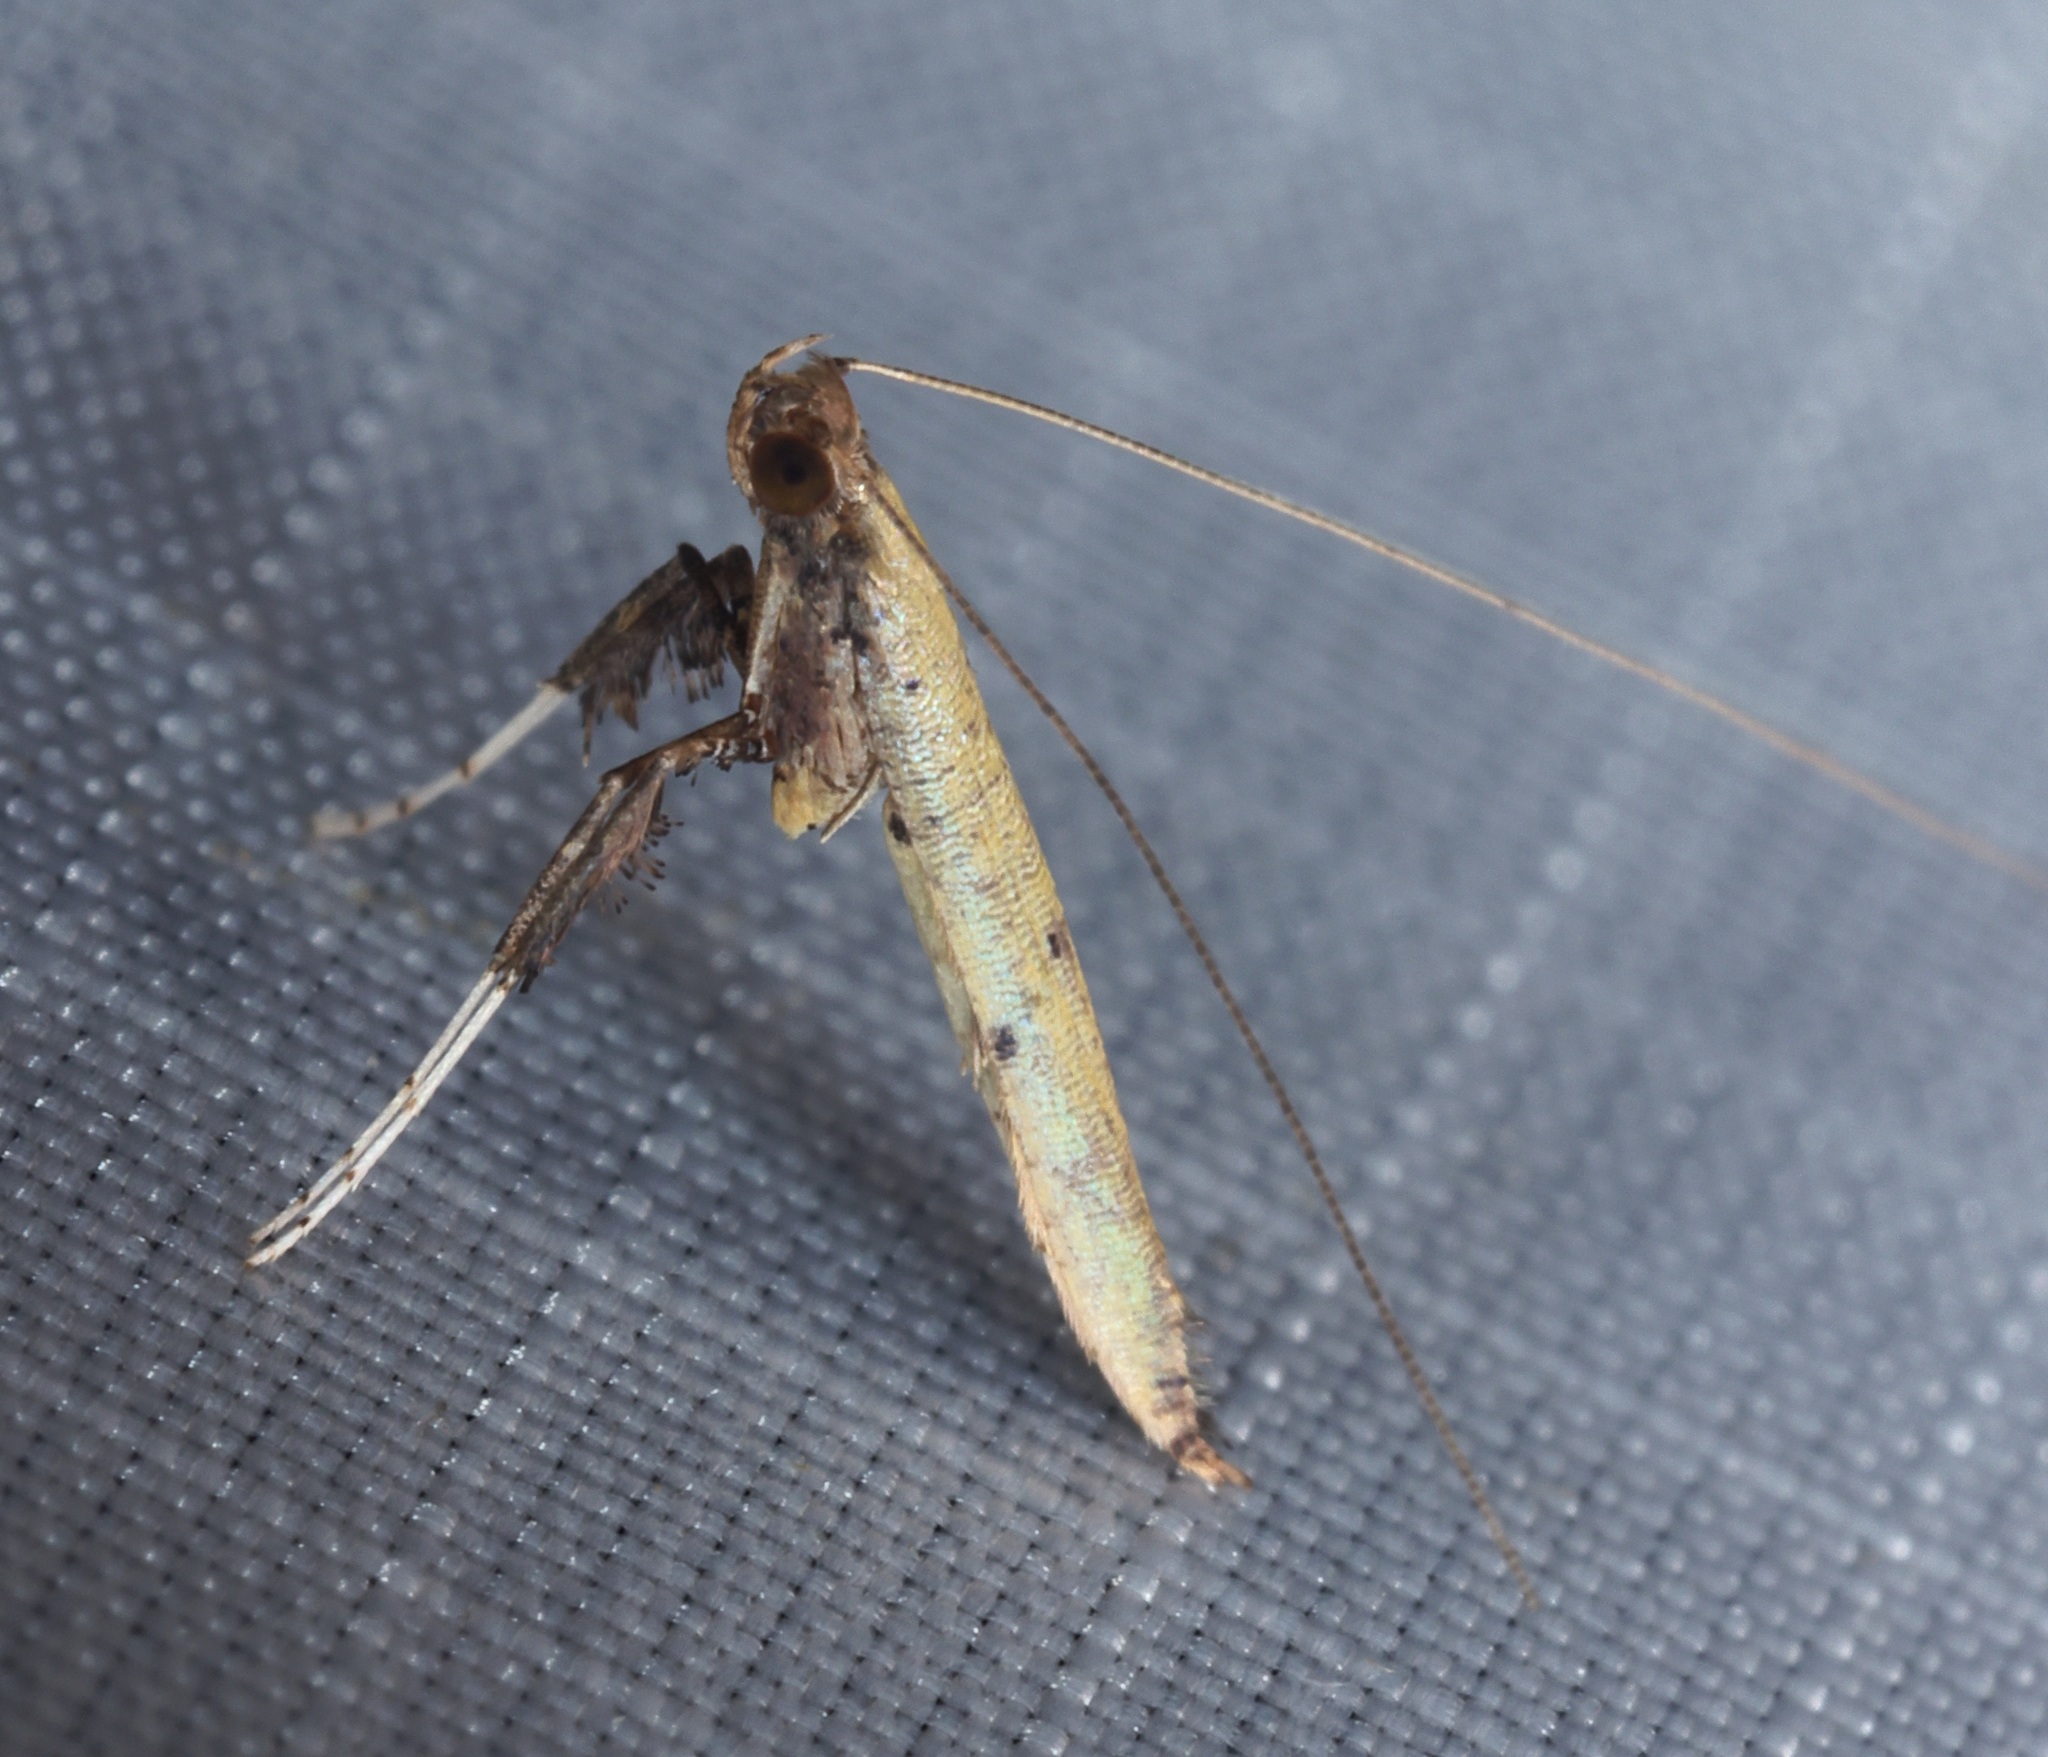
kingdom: Animalia
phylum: Arthropoda
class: Insecta
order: Lepidoptera
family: Gracillariidae
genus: Caloptilia
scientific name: Caloptilia protiella
